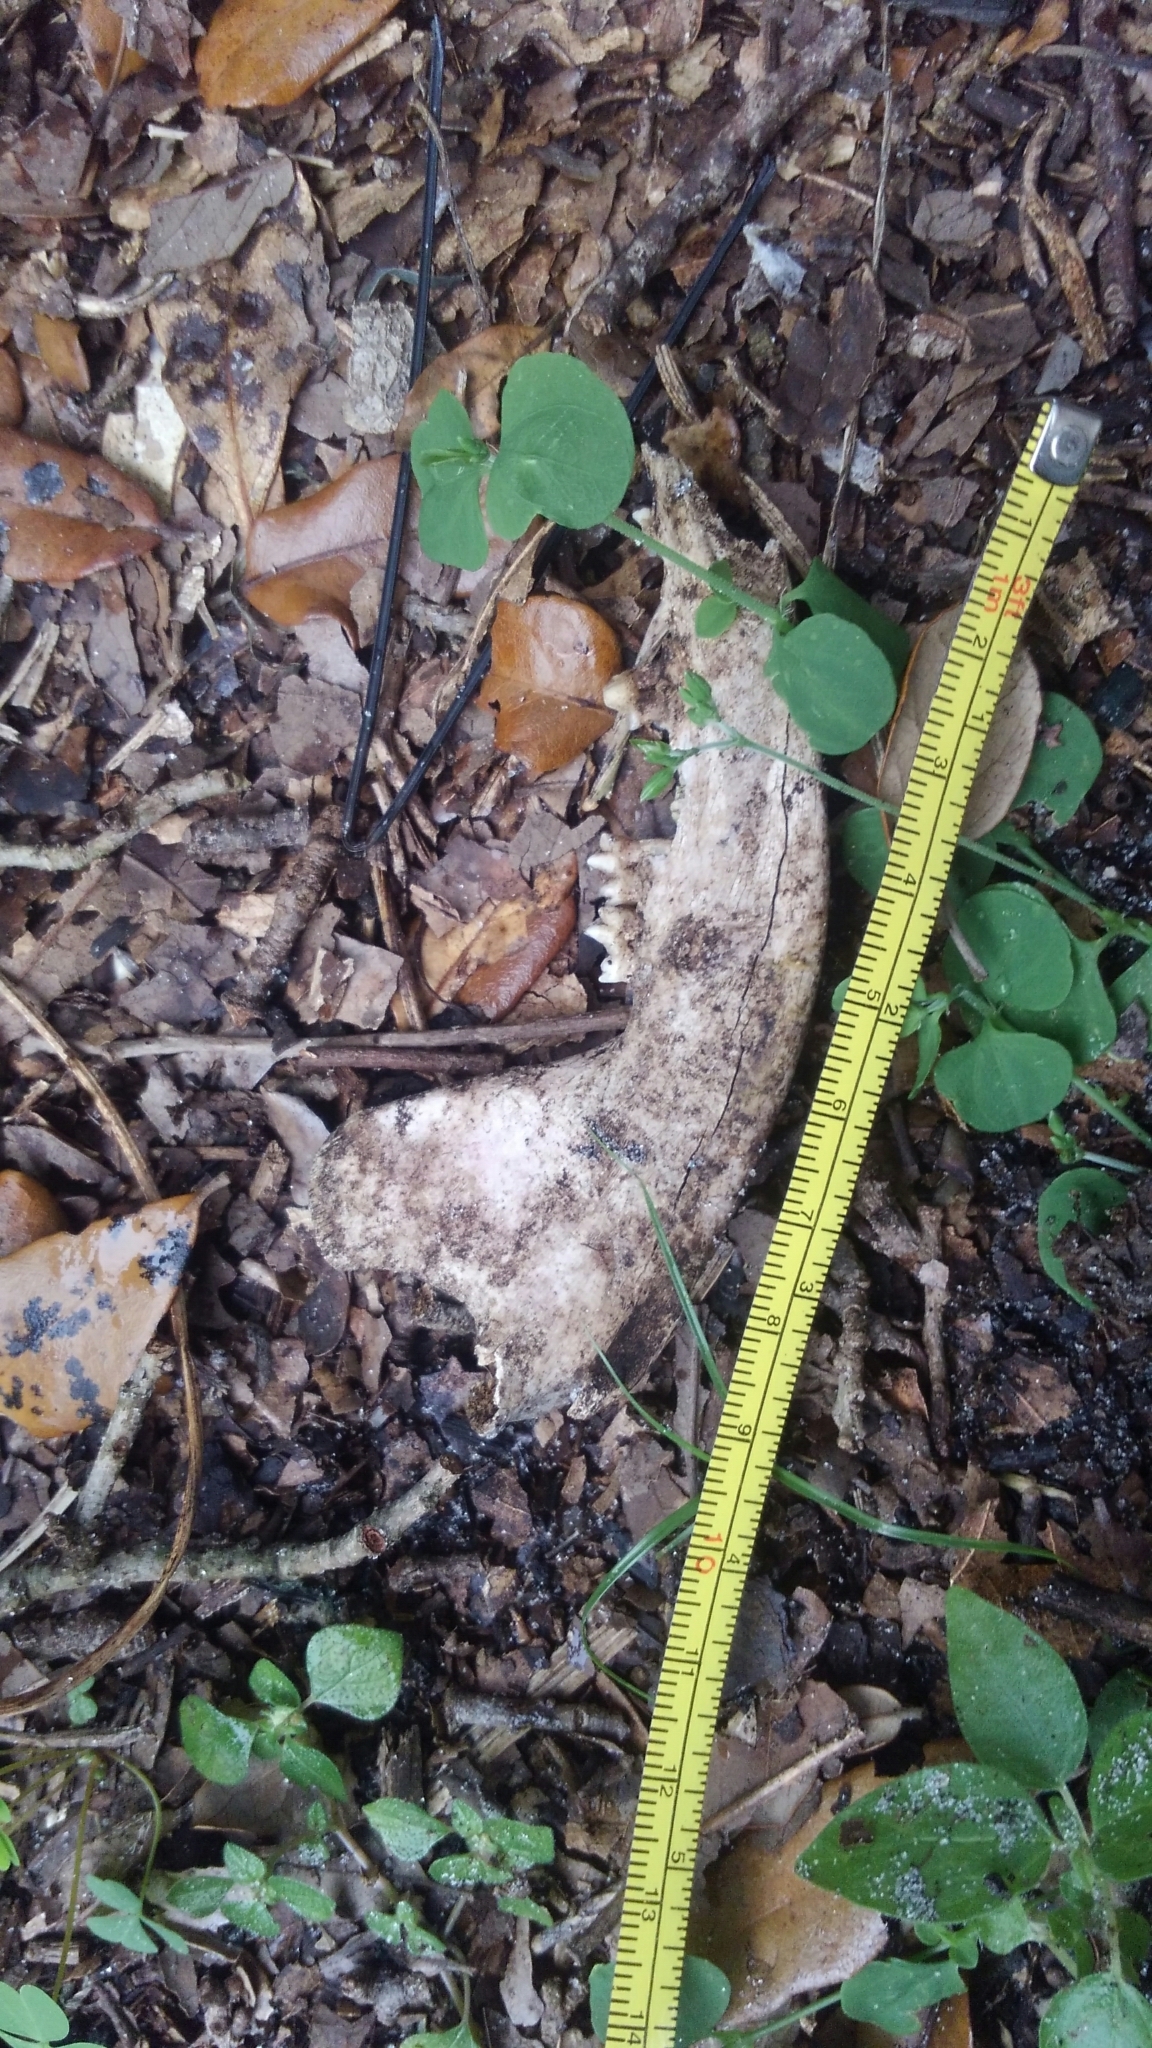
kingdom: Animalia
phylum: Chordata
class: Mammalia
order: Didelphimorphia
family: Didelphidae
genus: Didelphis
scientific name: Didelphis virginiana
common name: Virginia opossum
